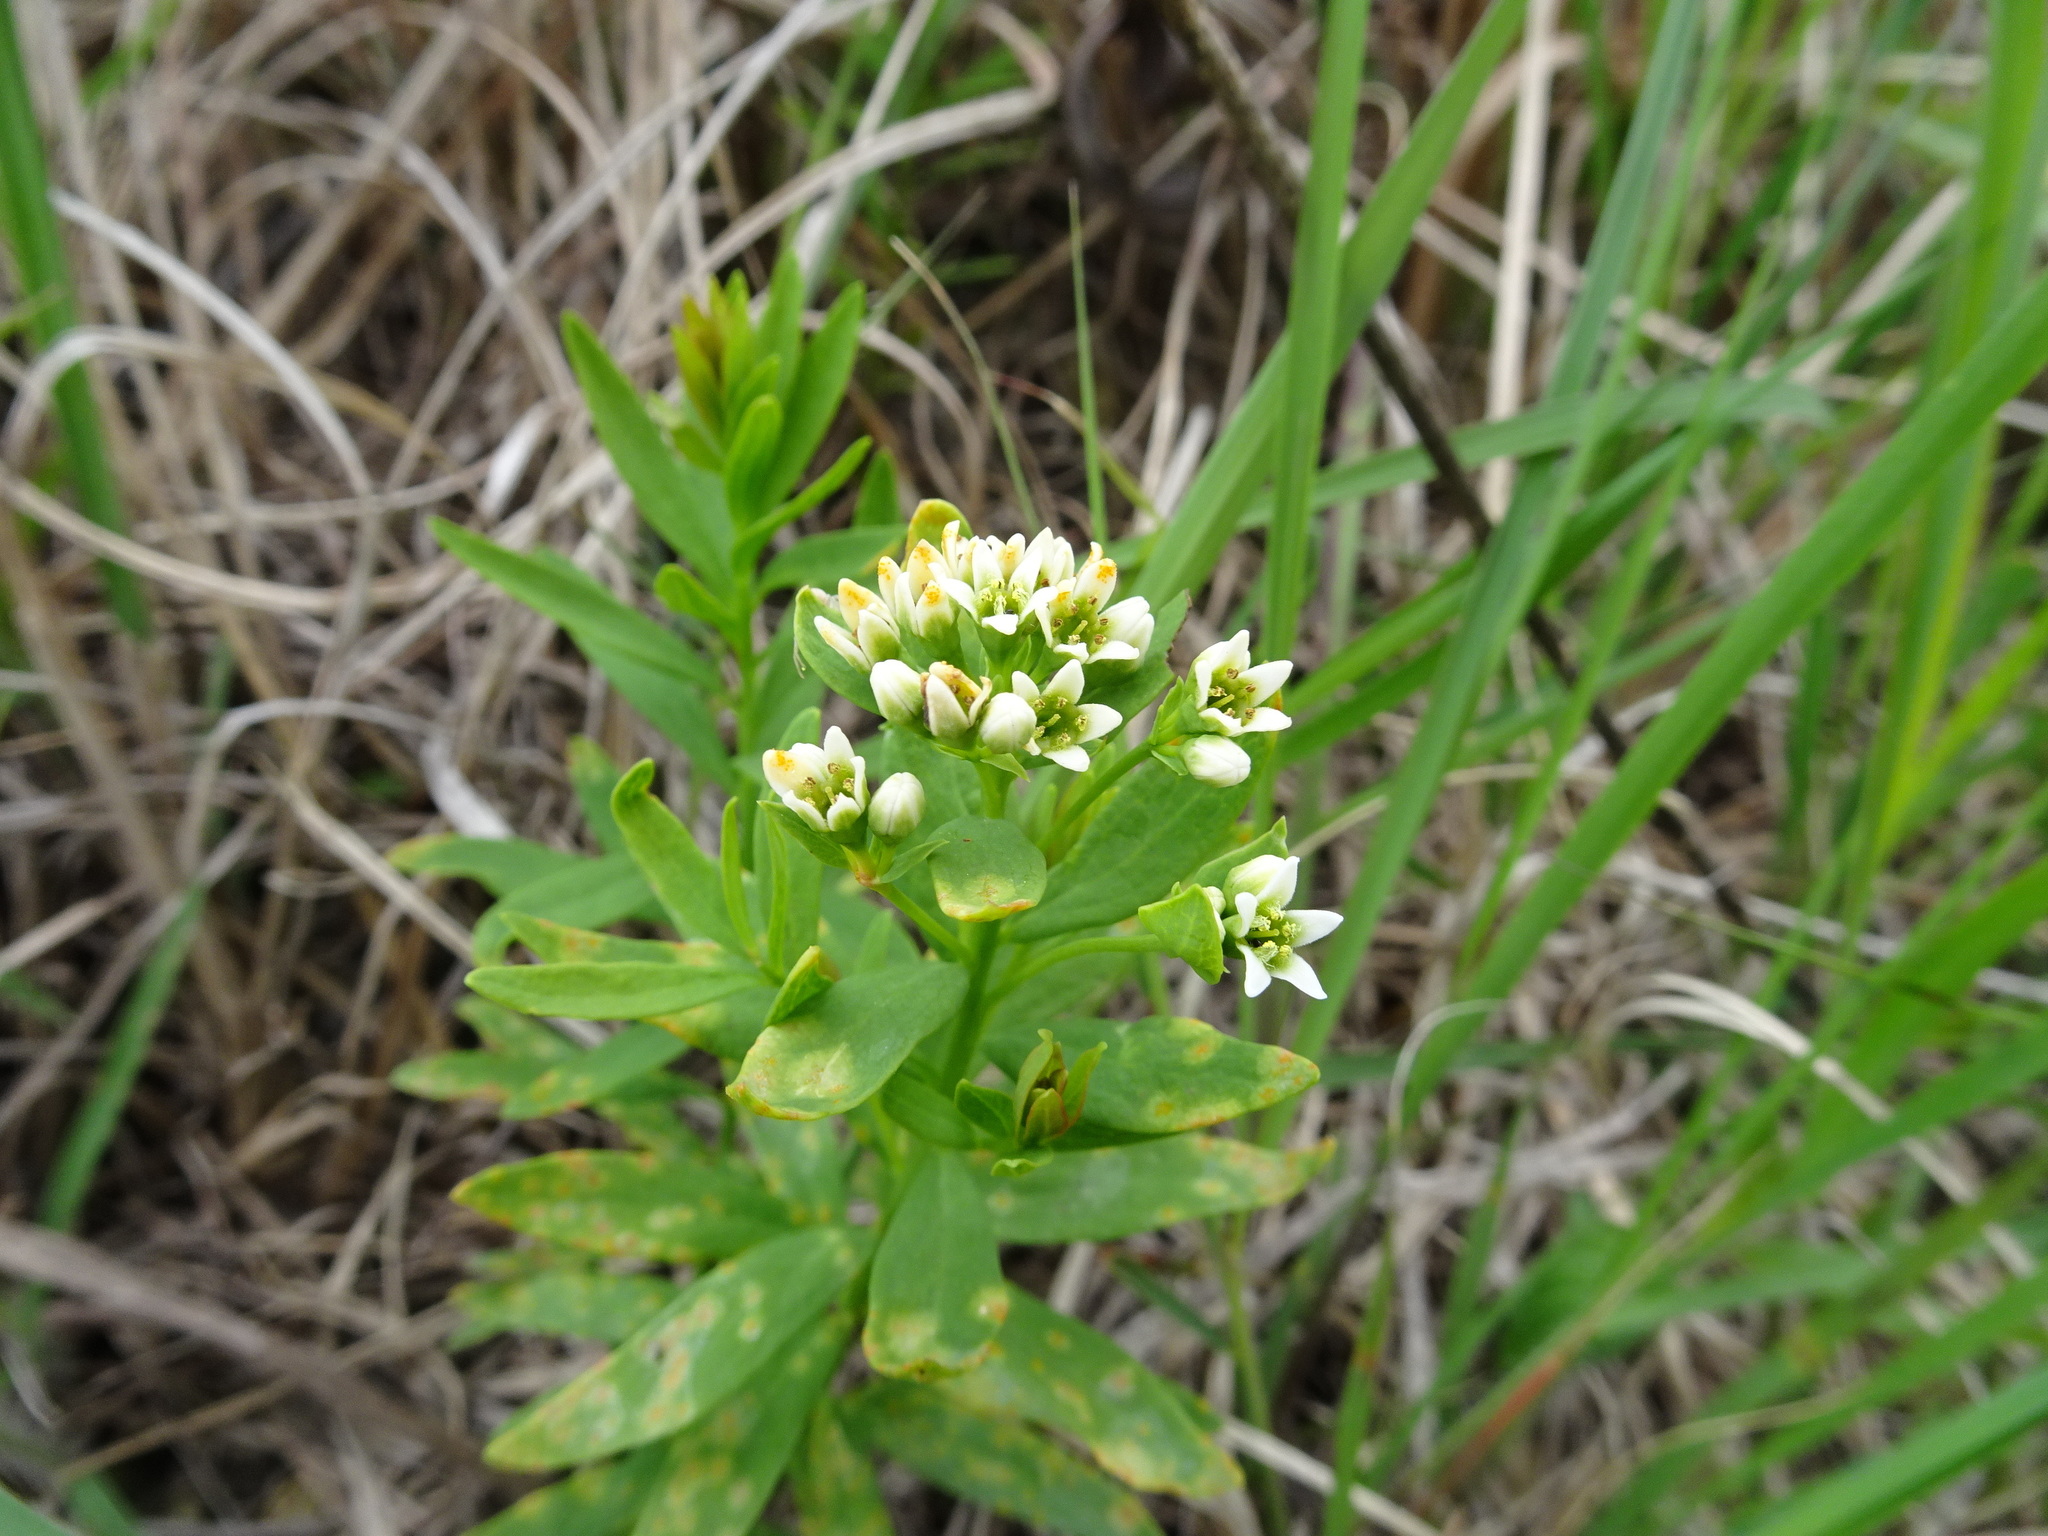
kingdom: Plantae
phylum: Tracheophyta
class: Magnoliopsida
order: Santalales
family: Comandraceae
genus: Comandra
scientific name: Comandra umbellata
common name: Bastard toadflax
